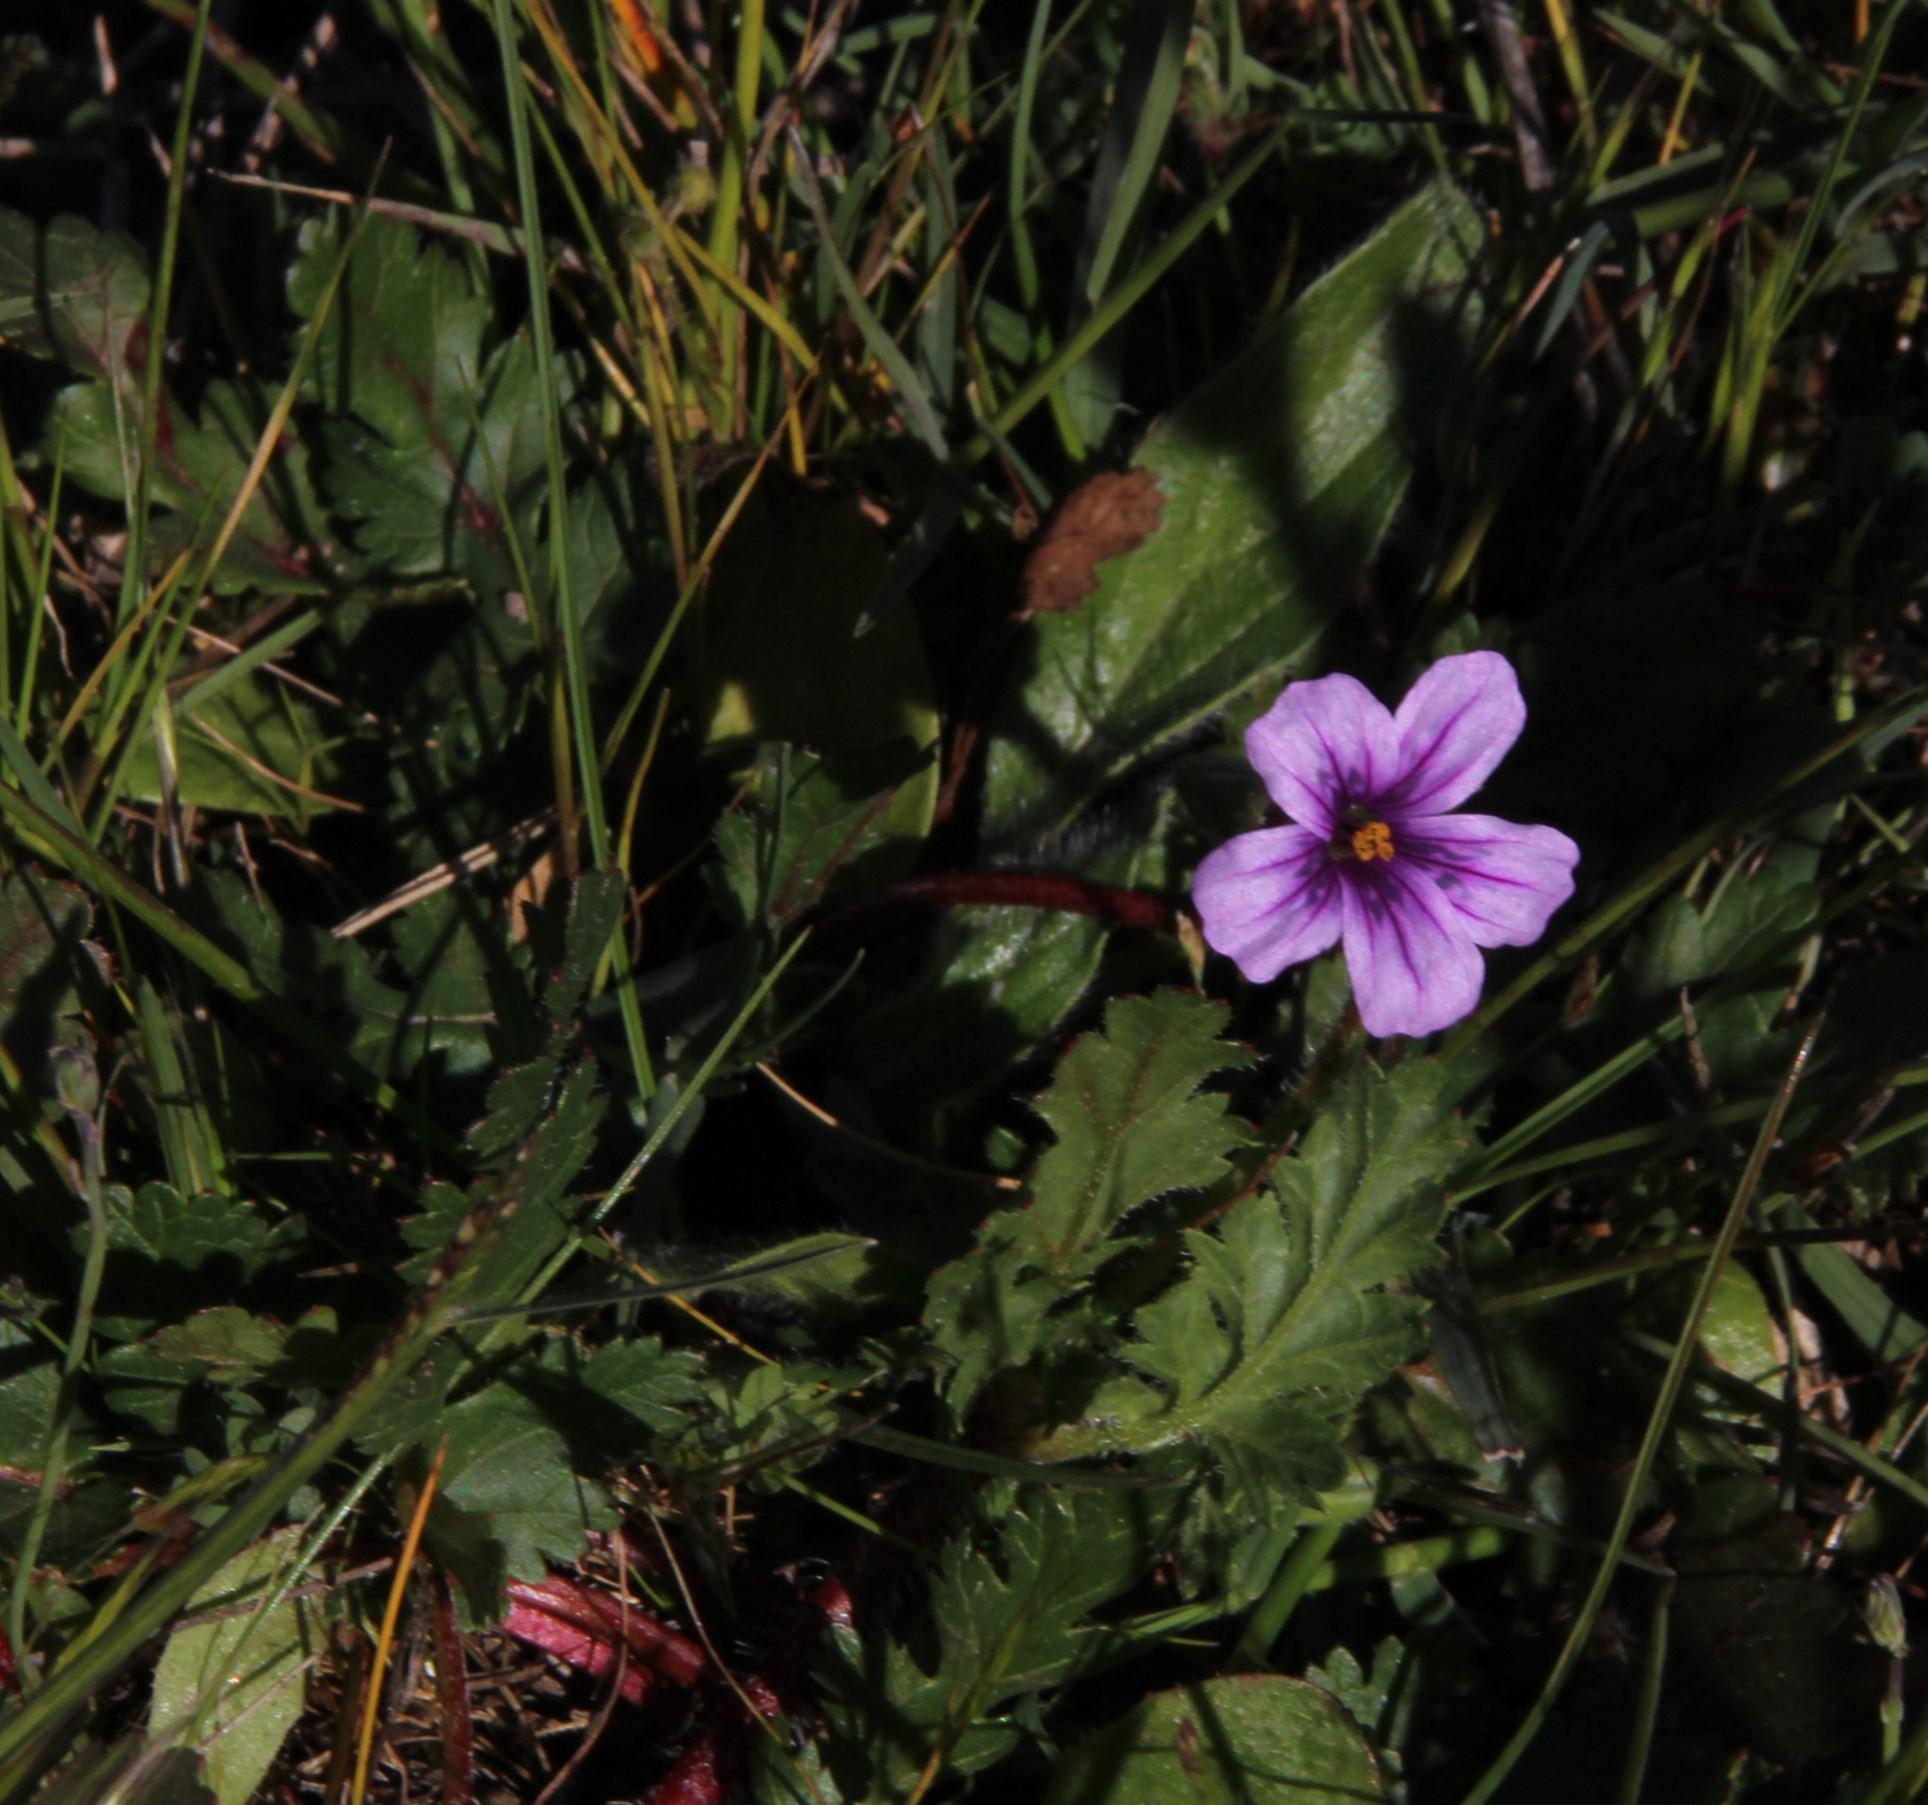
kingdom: Plantae
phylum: Tracheophyta
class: Magnoliopsida
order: Geraniales
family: Geraniaceae
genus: Erodium
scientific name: Erodium botrys
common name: Mediterranean stork's-bill
